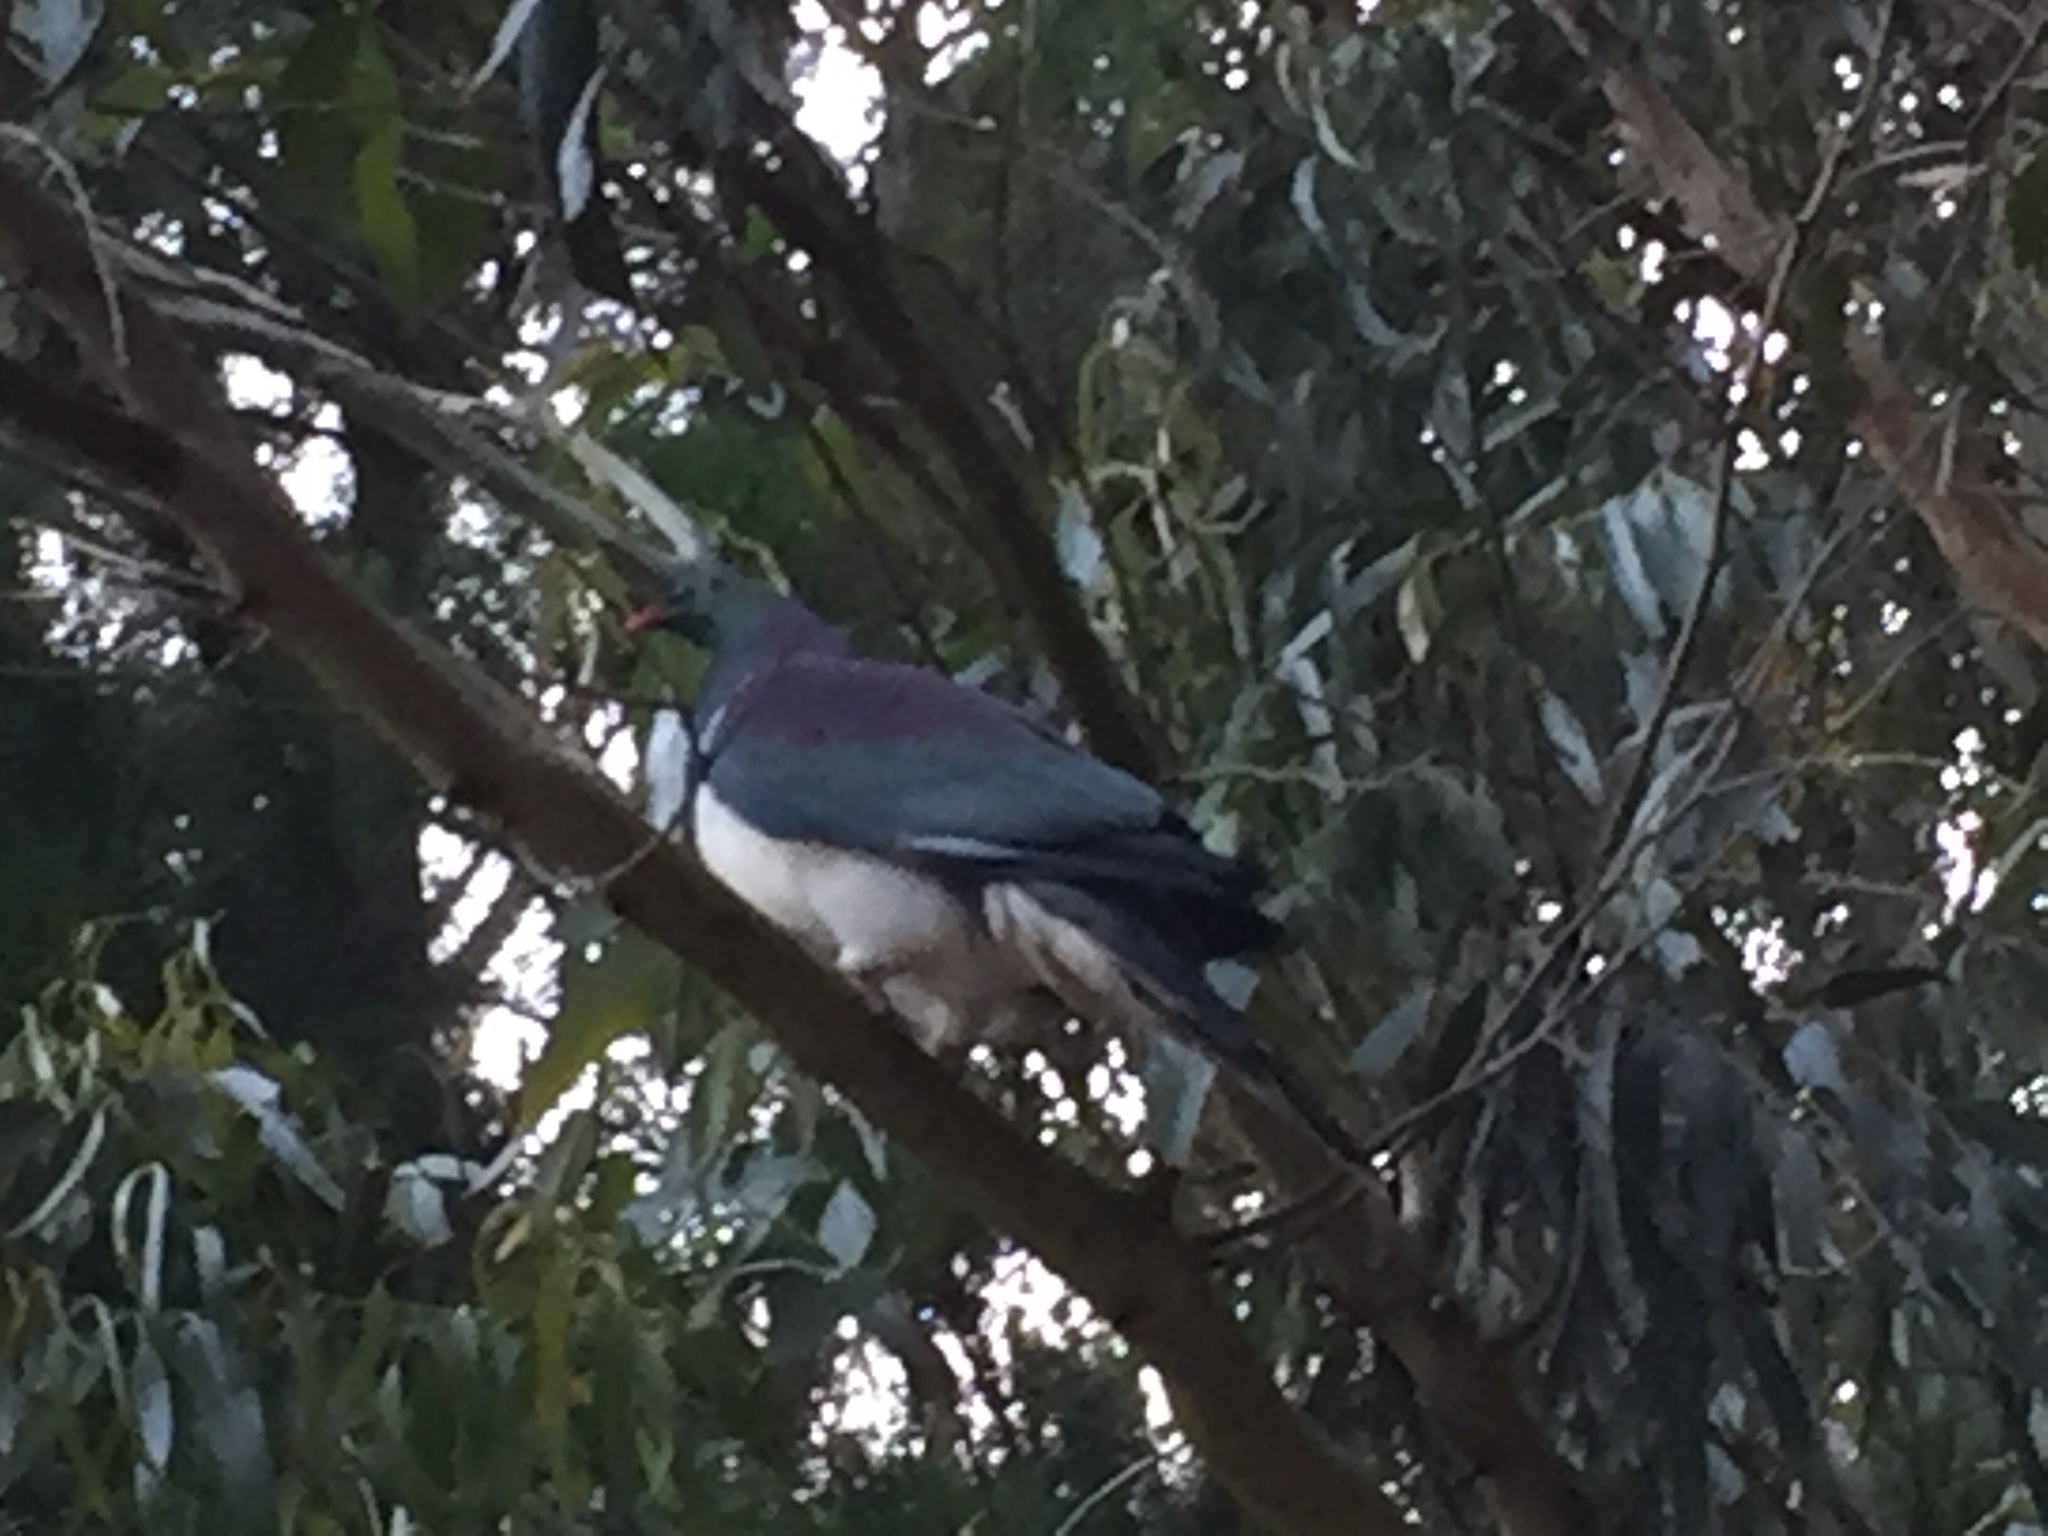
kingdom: Animalia
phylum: Chordata
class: Aves
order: Columbiformes
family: Columbidae
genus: Hemiphaga
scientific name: Hemiphaga novaeseelandiae
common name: New zealand pigeon
